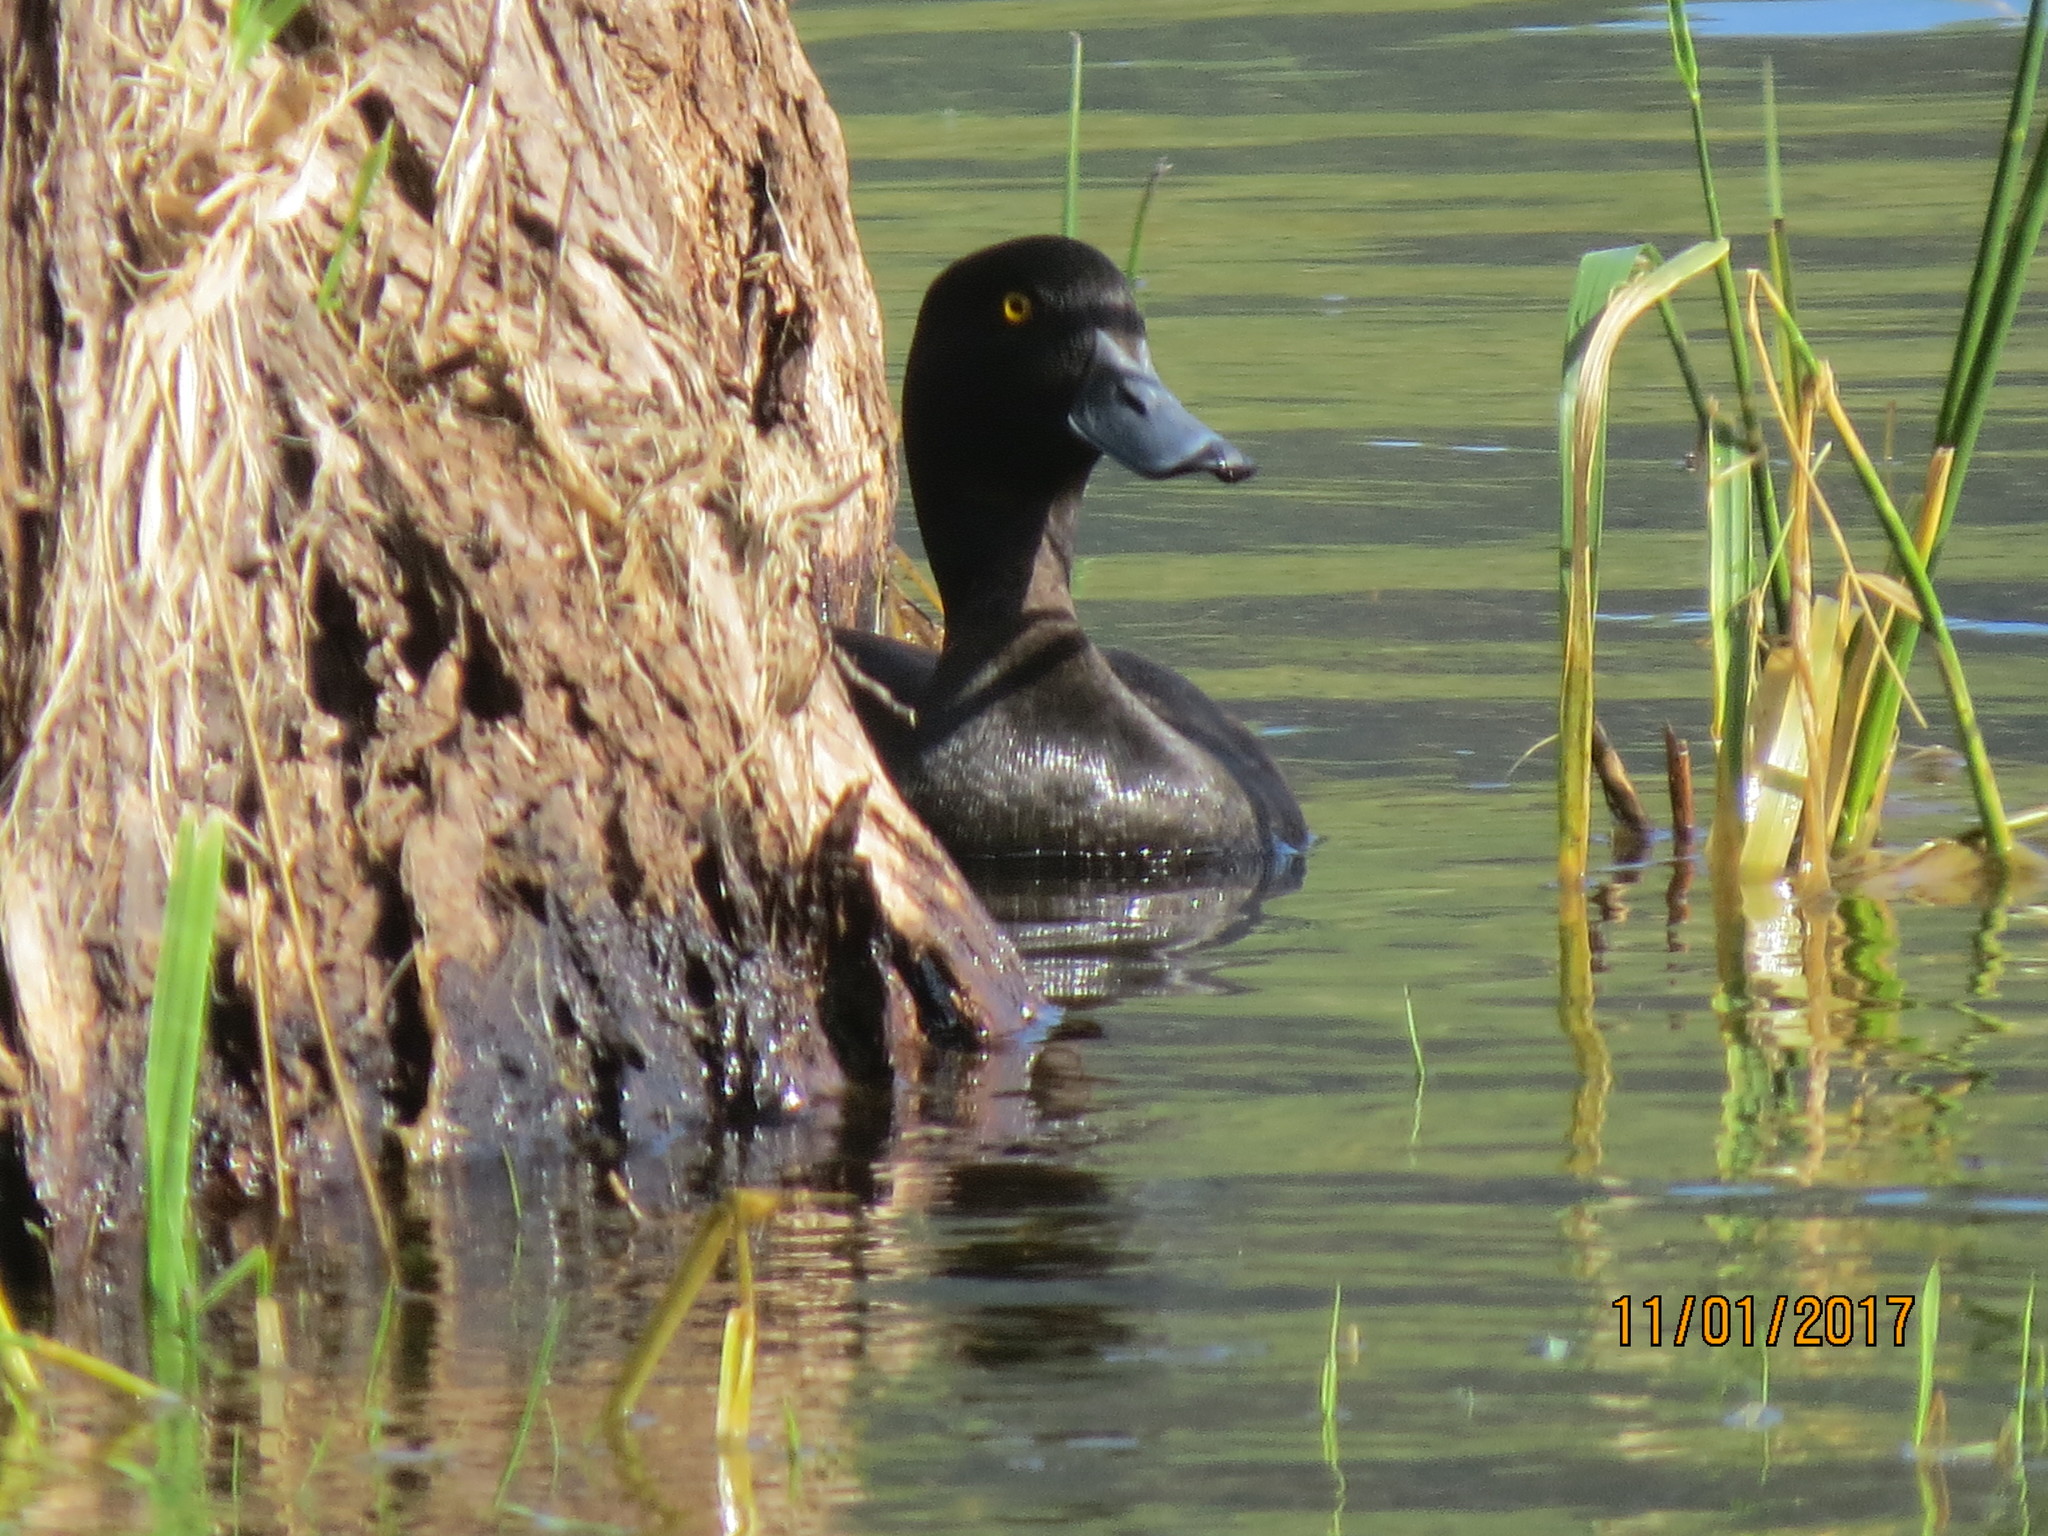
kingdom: Animalia
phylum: Chordata
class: Aves
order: Anseriformes
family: Anatidae
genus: Aythya
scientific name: Aythya novaeseelandiae
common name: New zealand scaup
